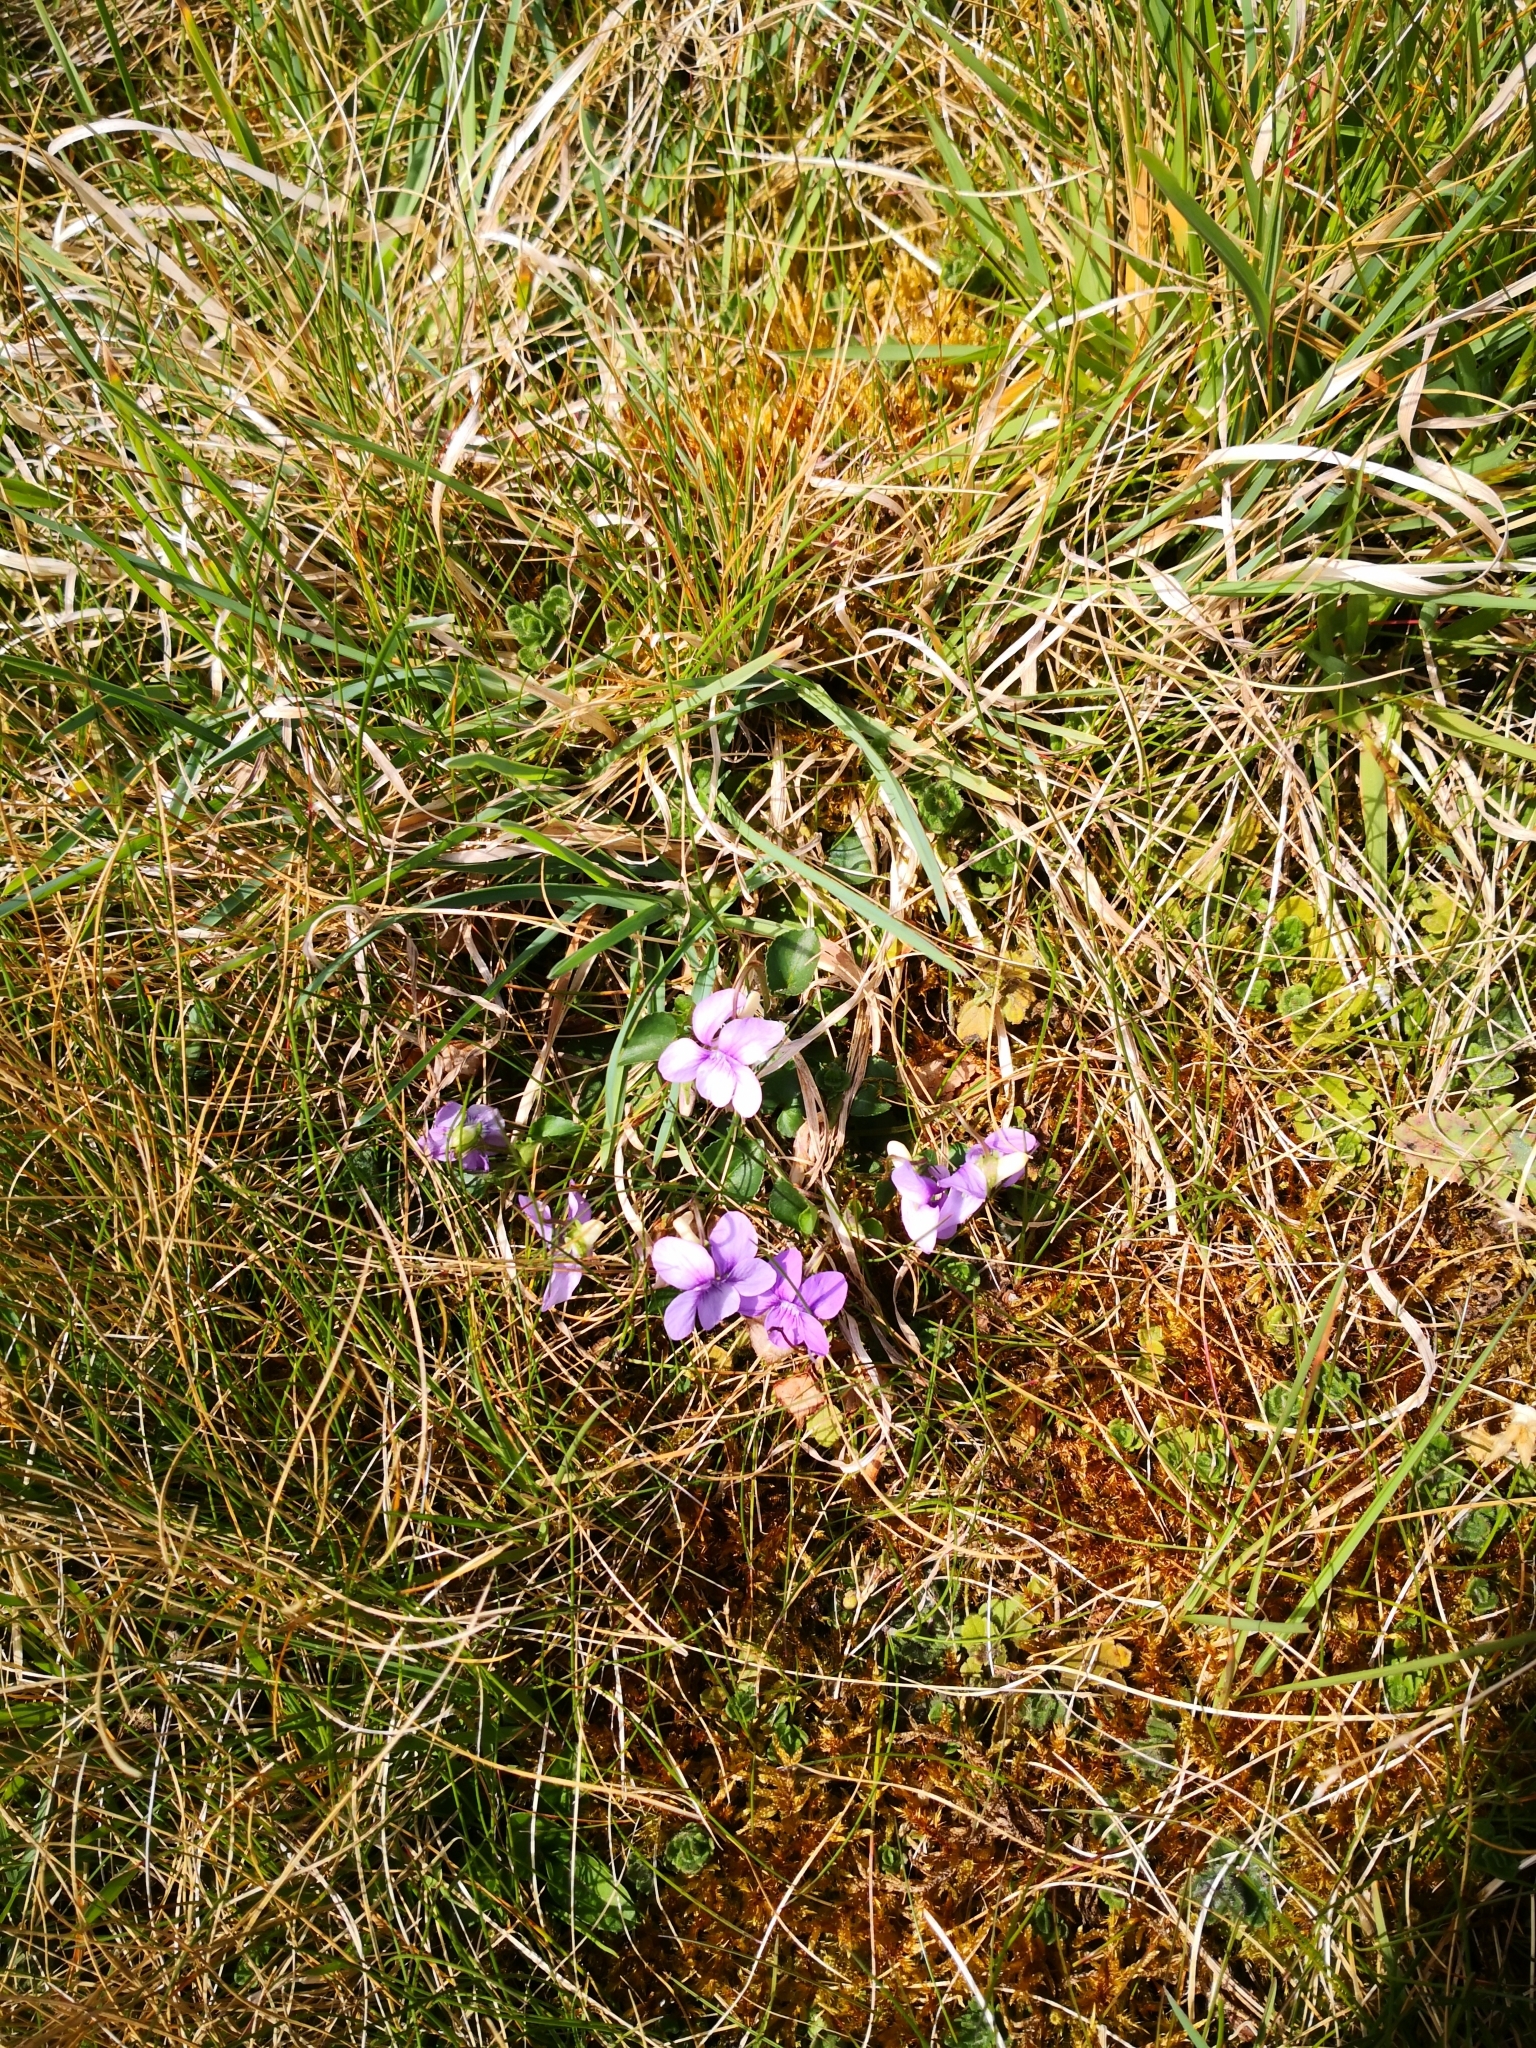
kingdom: Plantae
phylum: Tracheophyta
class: Magnoliopsida
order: Malpighiales
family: Violaceae
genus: Viola
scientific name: Viola riviniana
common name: Common dog-violet
